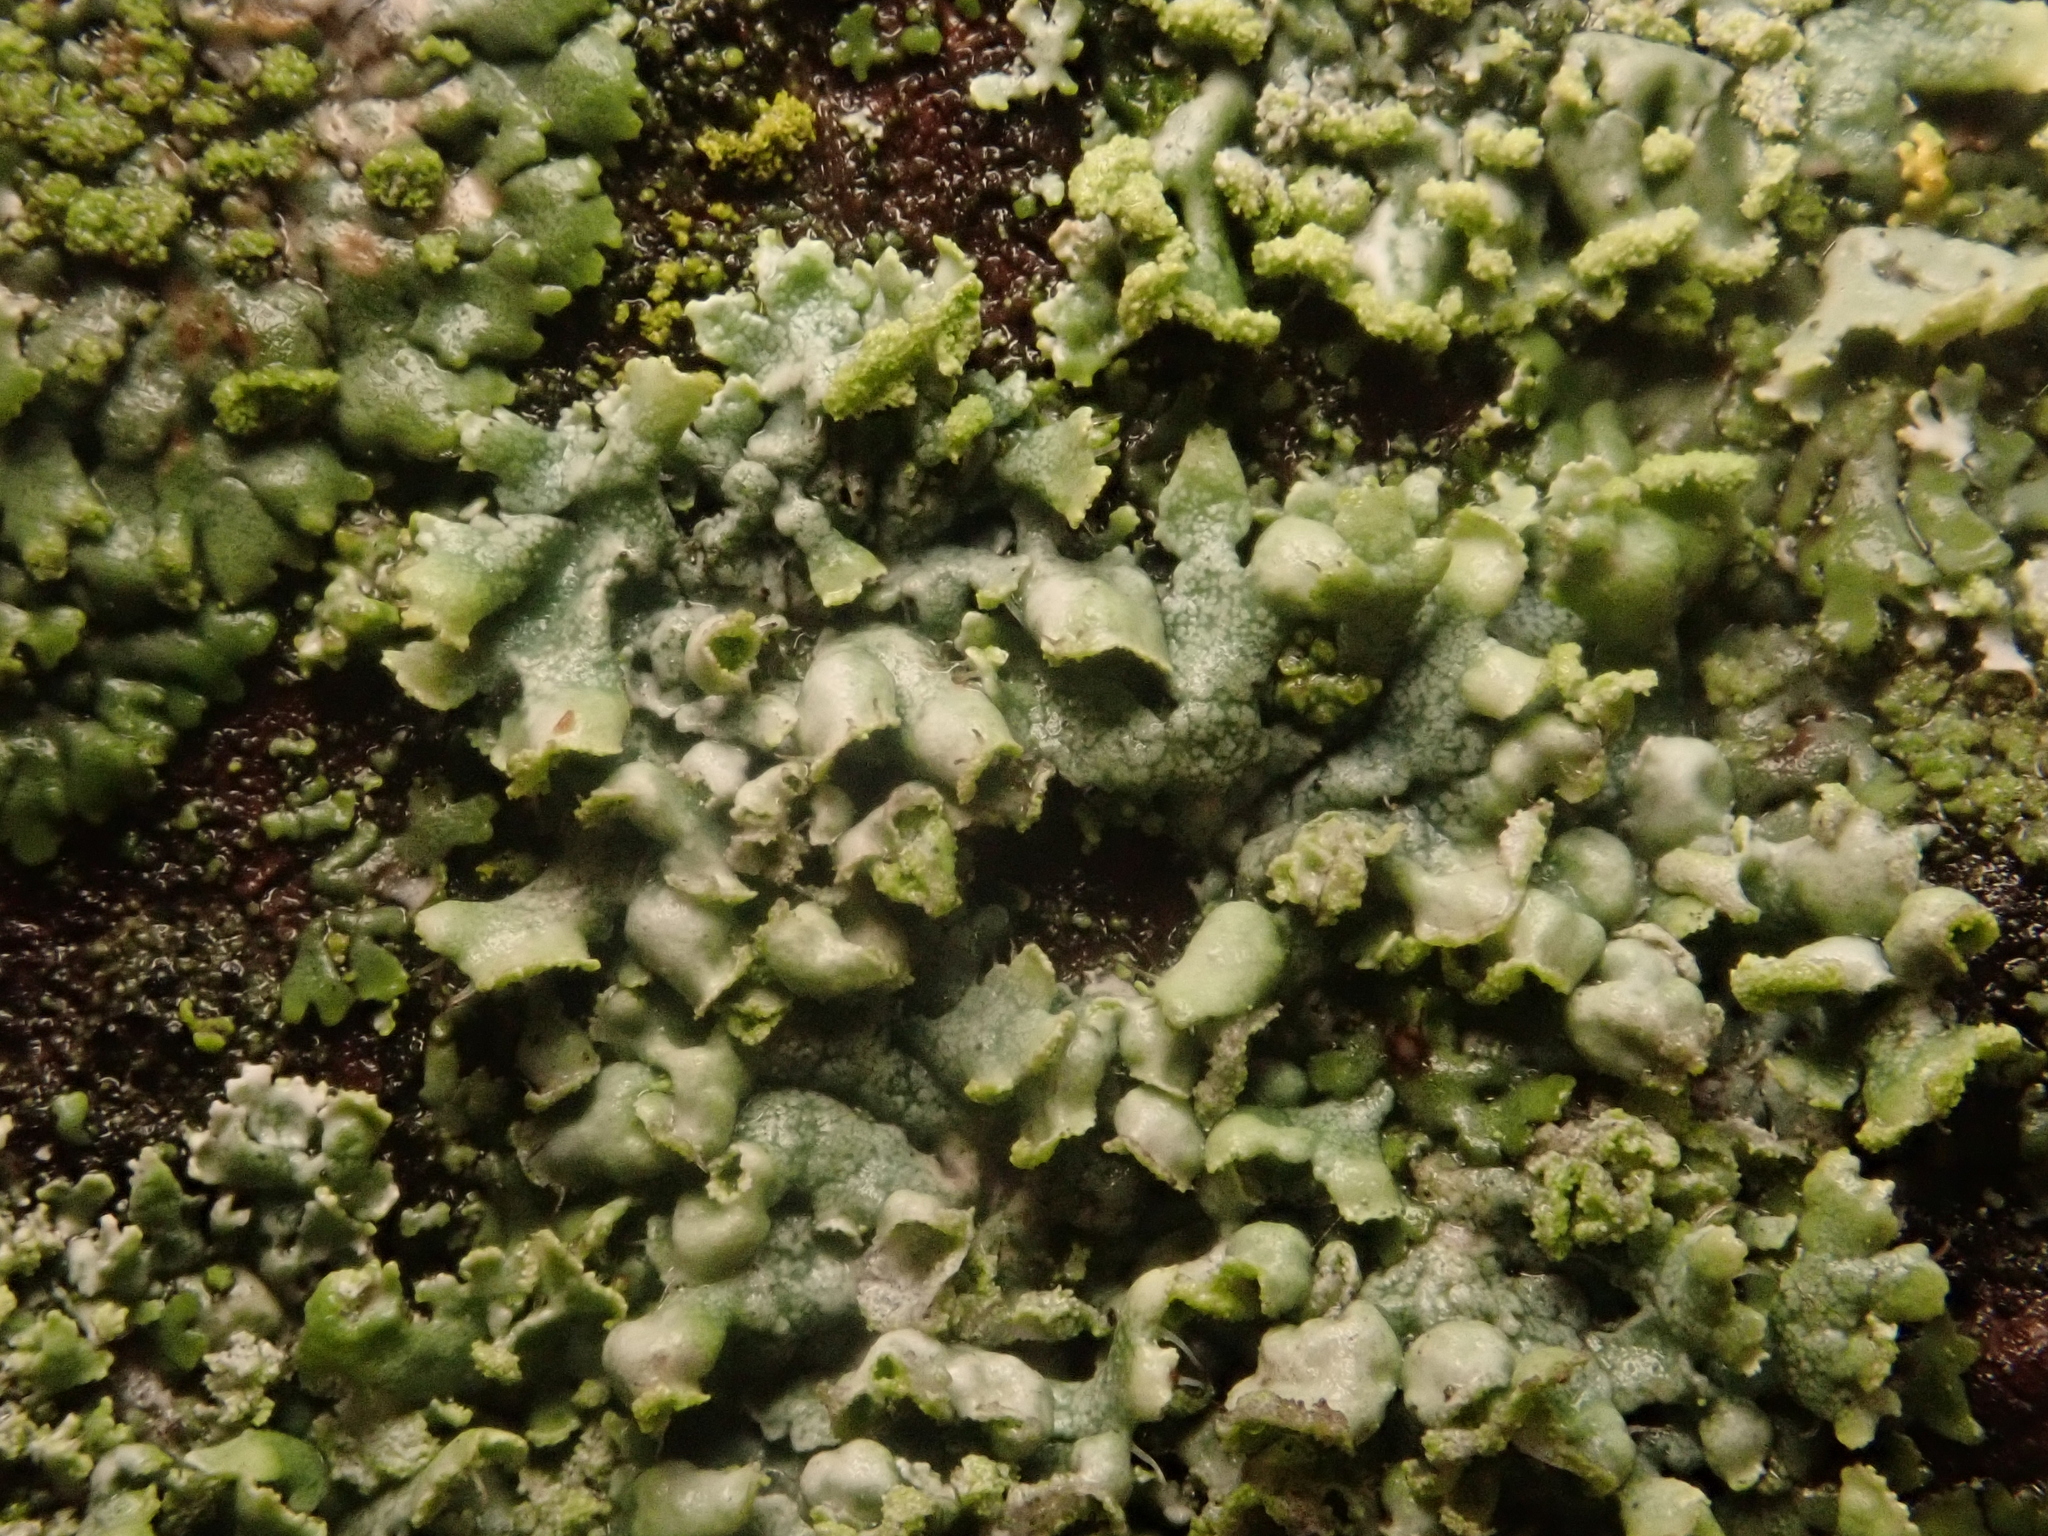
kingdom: Fungi
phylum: Ascomycota
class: Lecanoromycetes
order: Caliciales
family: Physciaceae
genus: Physcia
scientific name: Physcia adscendens
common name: Hooded rosette lichen
